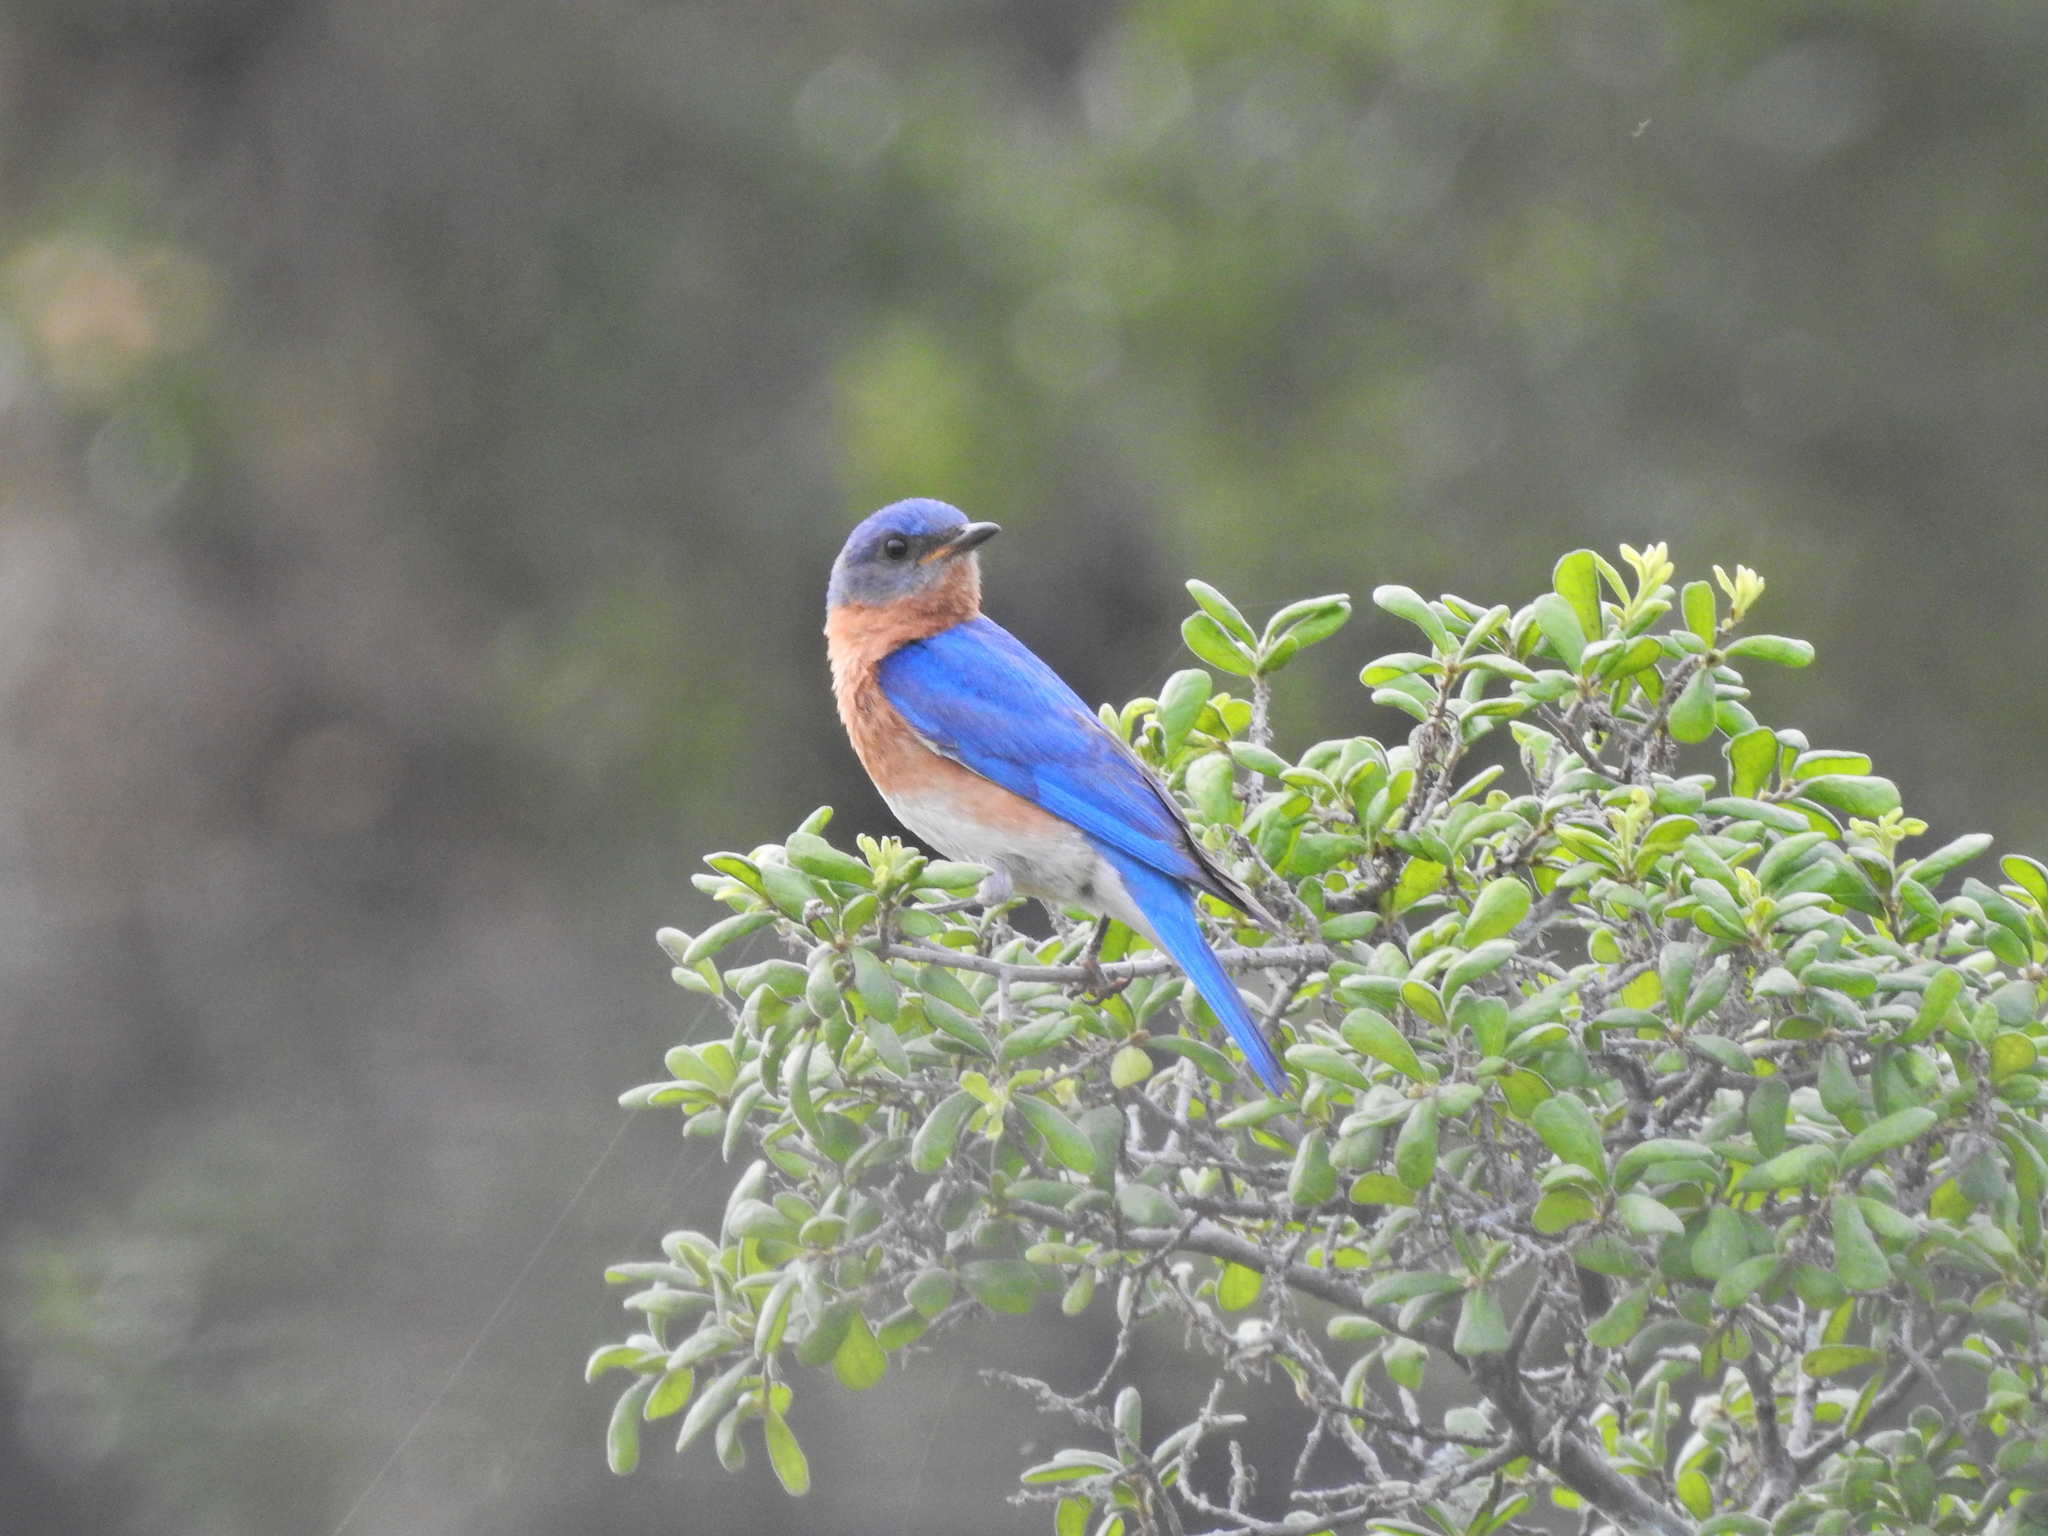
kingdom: Animalia
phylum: Chordata
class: Aves
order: Passeriformes
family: Turdidae
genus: Sialia
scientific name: Sialia sialis
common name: Eastern bluebird
